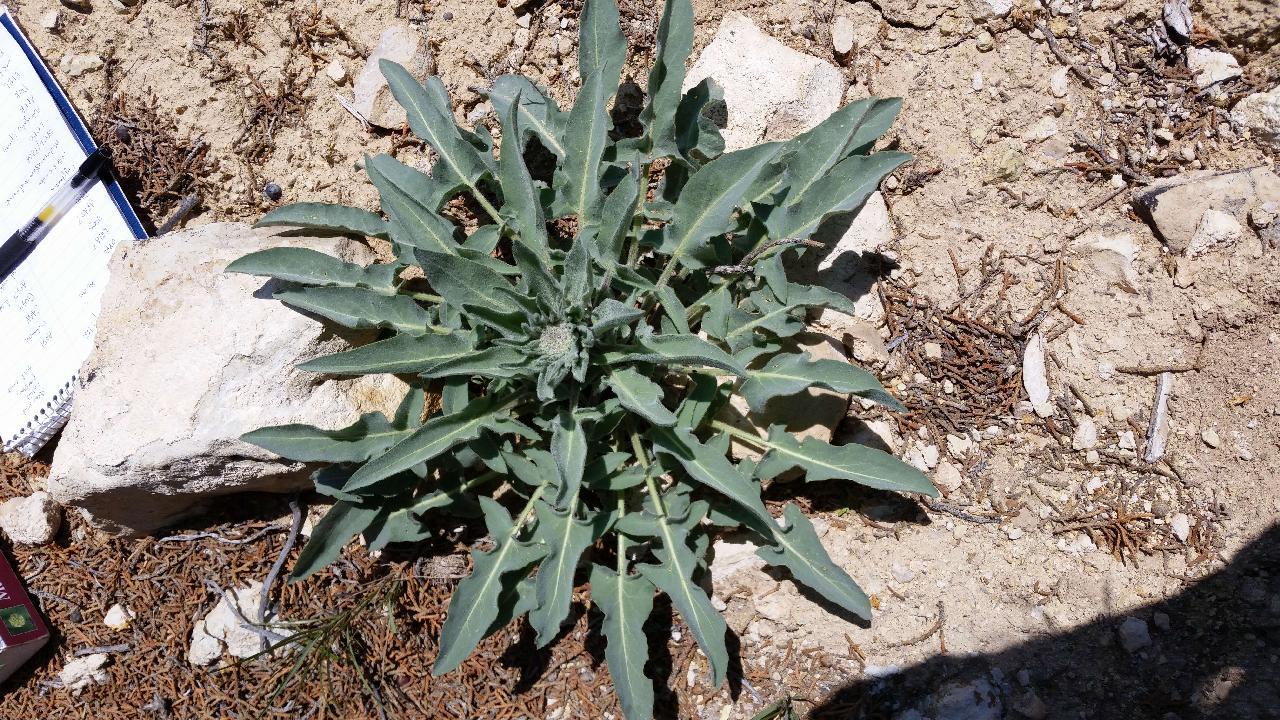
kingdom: Plantae
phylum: Tracheophyta
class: Magnoliopsida
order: Brassicales
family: Brassicaceae
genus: Stanleya
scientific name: Stanleya tomentosa
